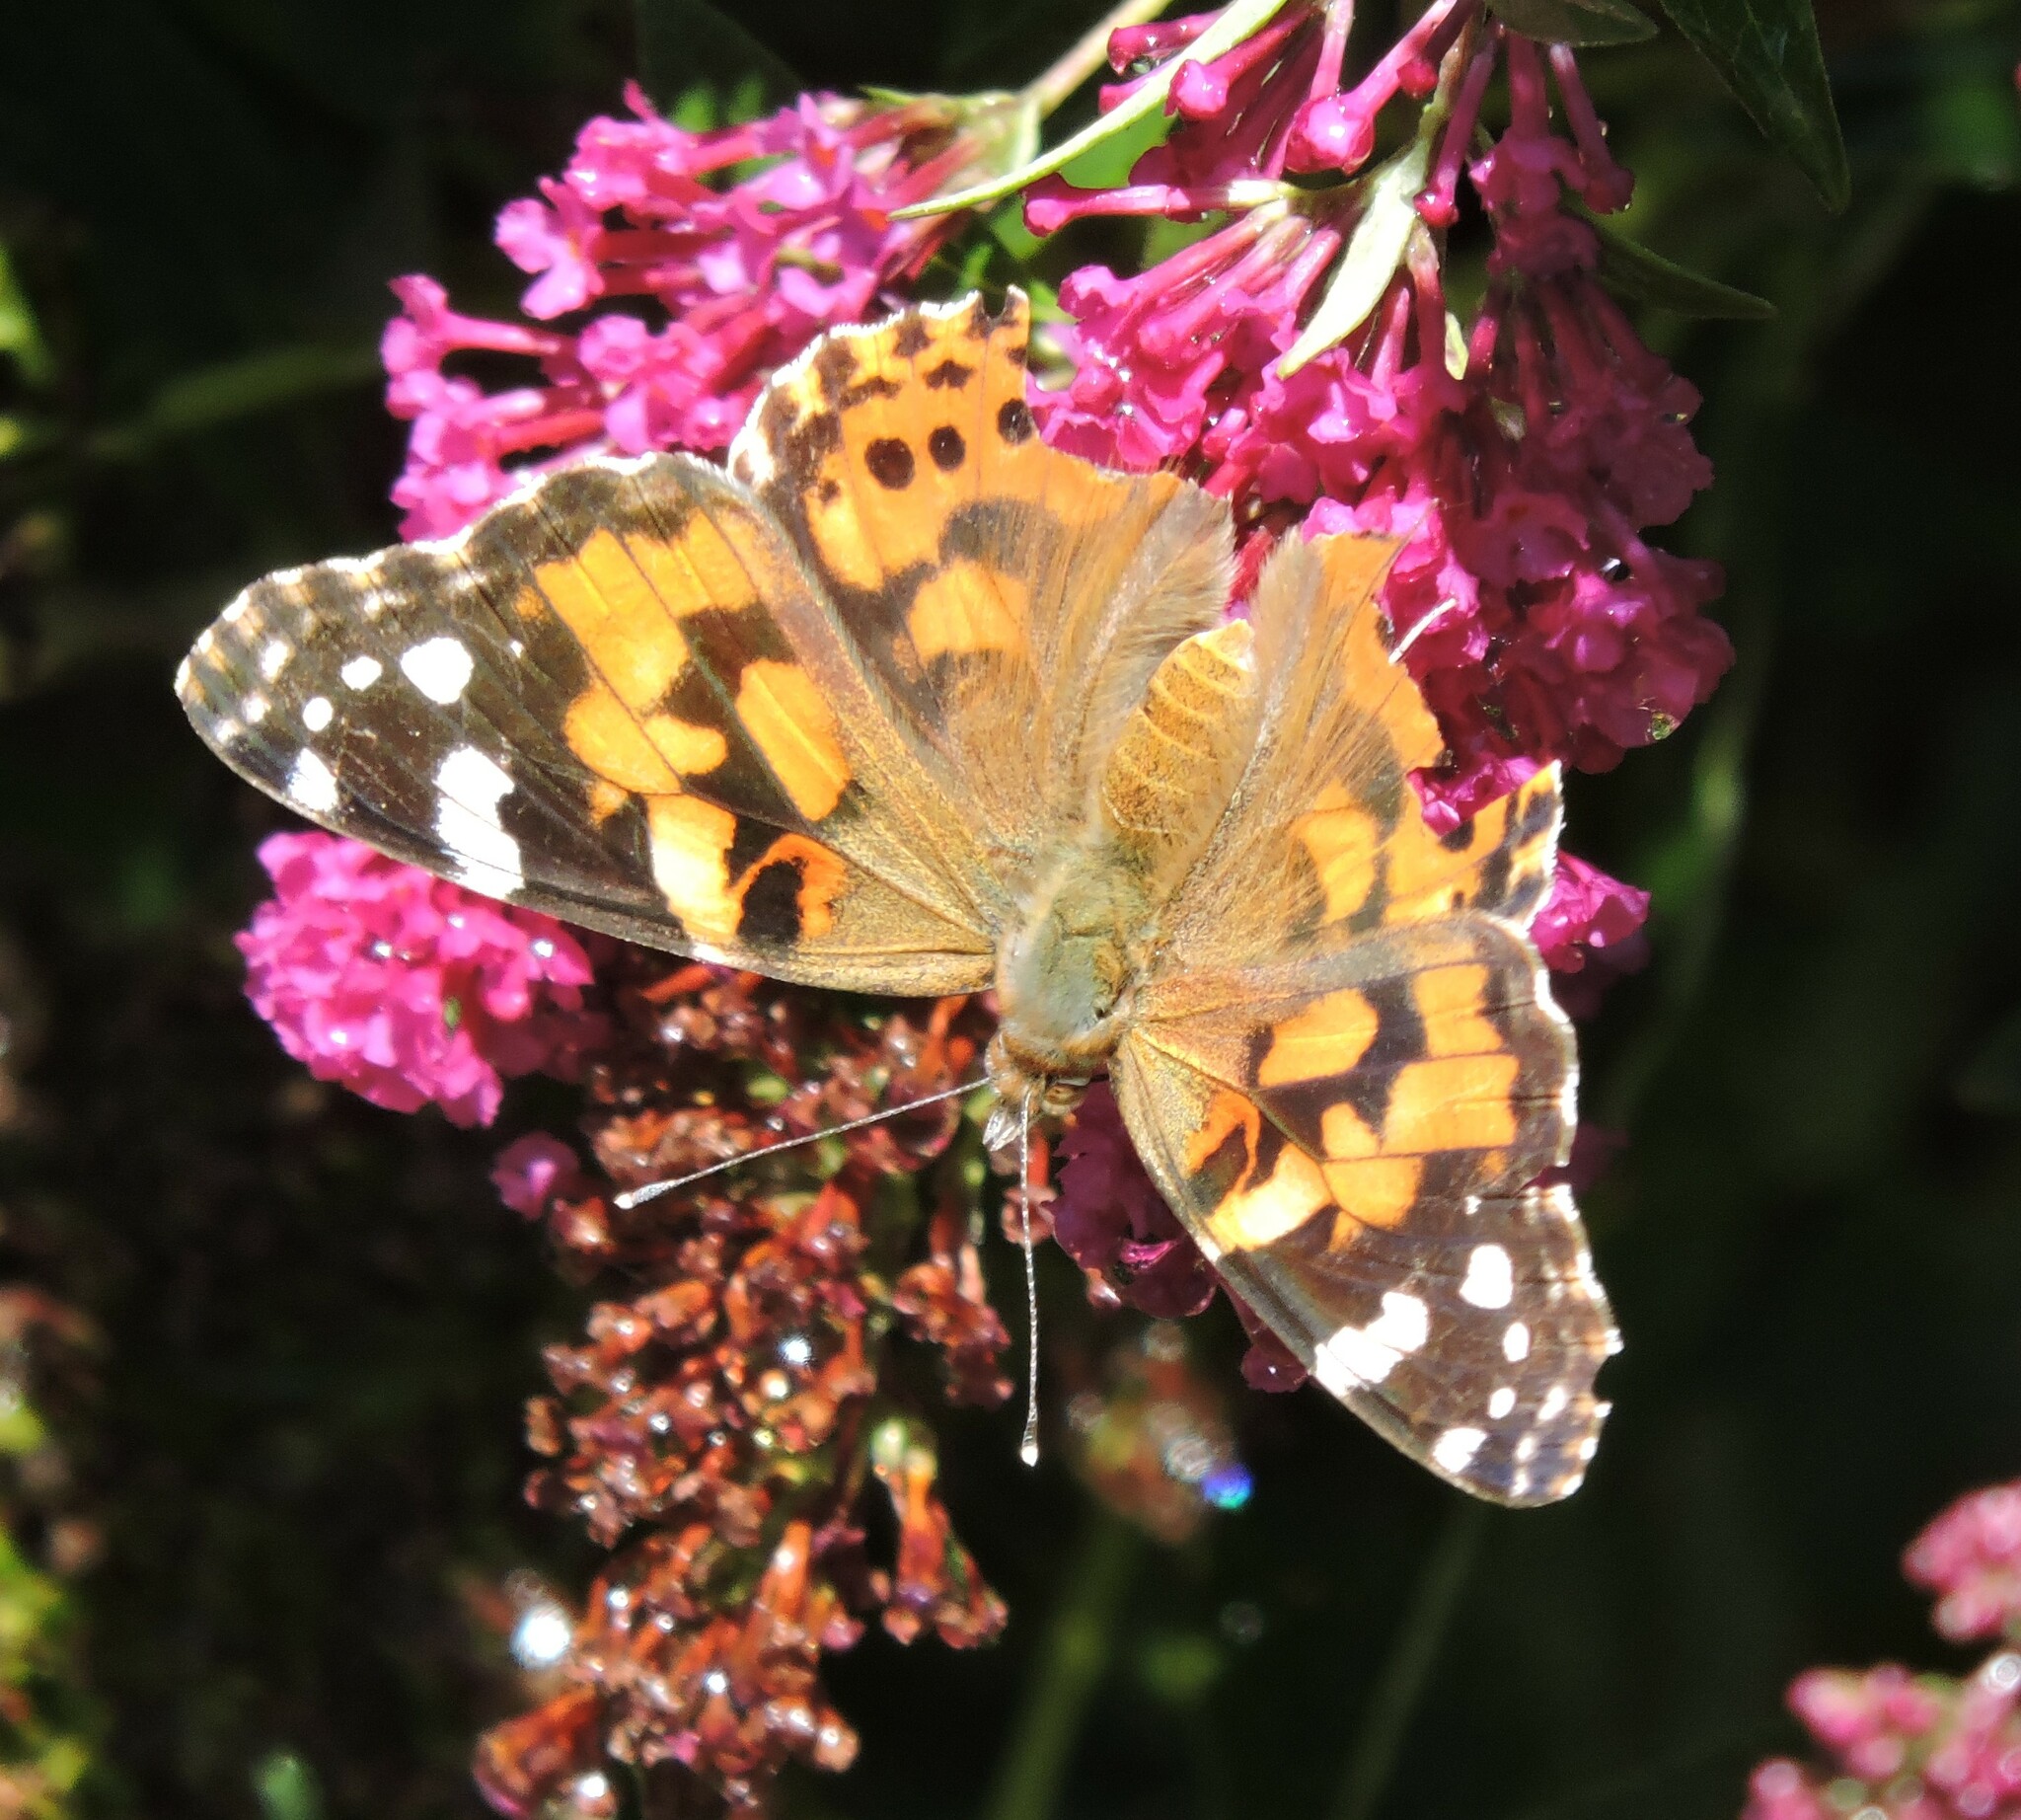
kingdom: Animalia
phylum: Arthropoda
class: Insecta
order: Lepidoptera
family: Nymphalidae
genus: Vanessa
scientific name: Vanessa cardui
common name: Painted lady
